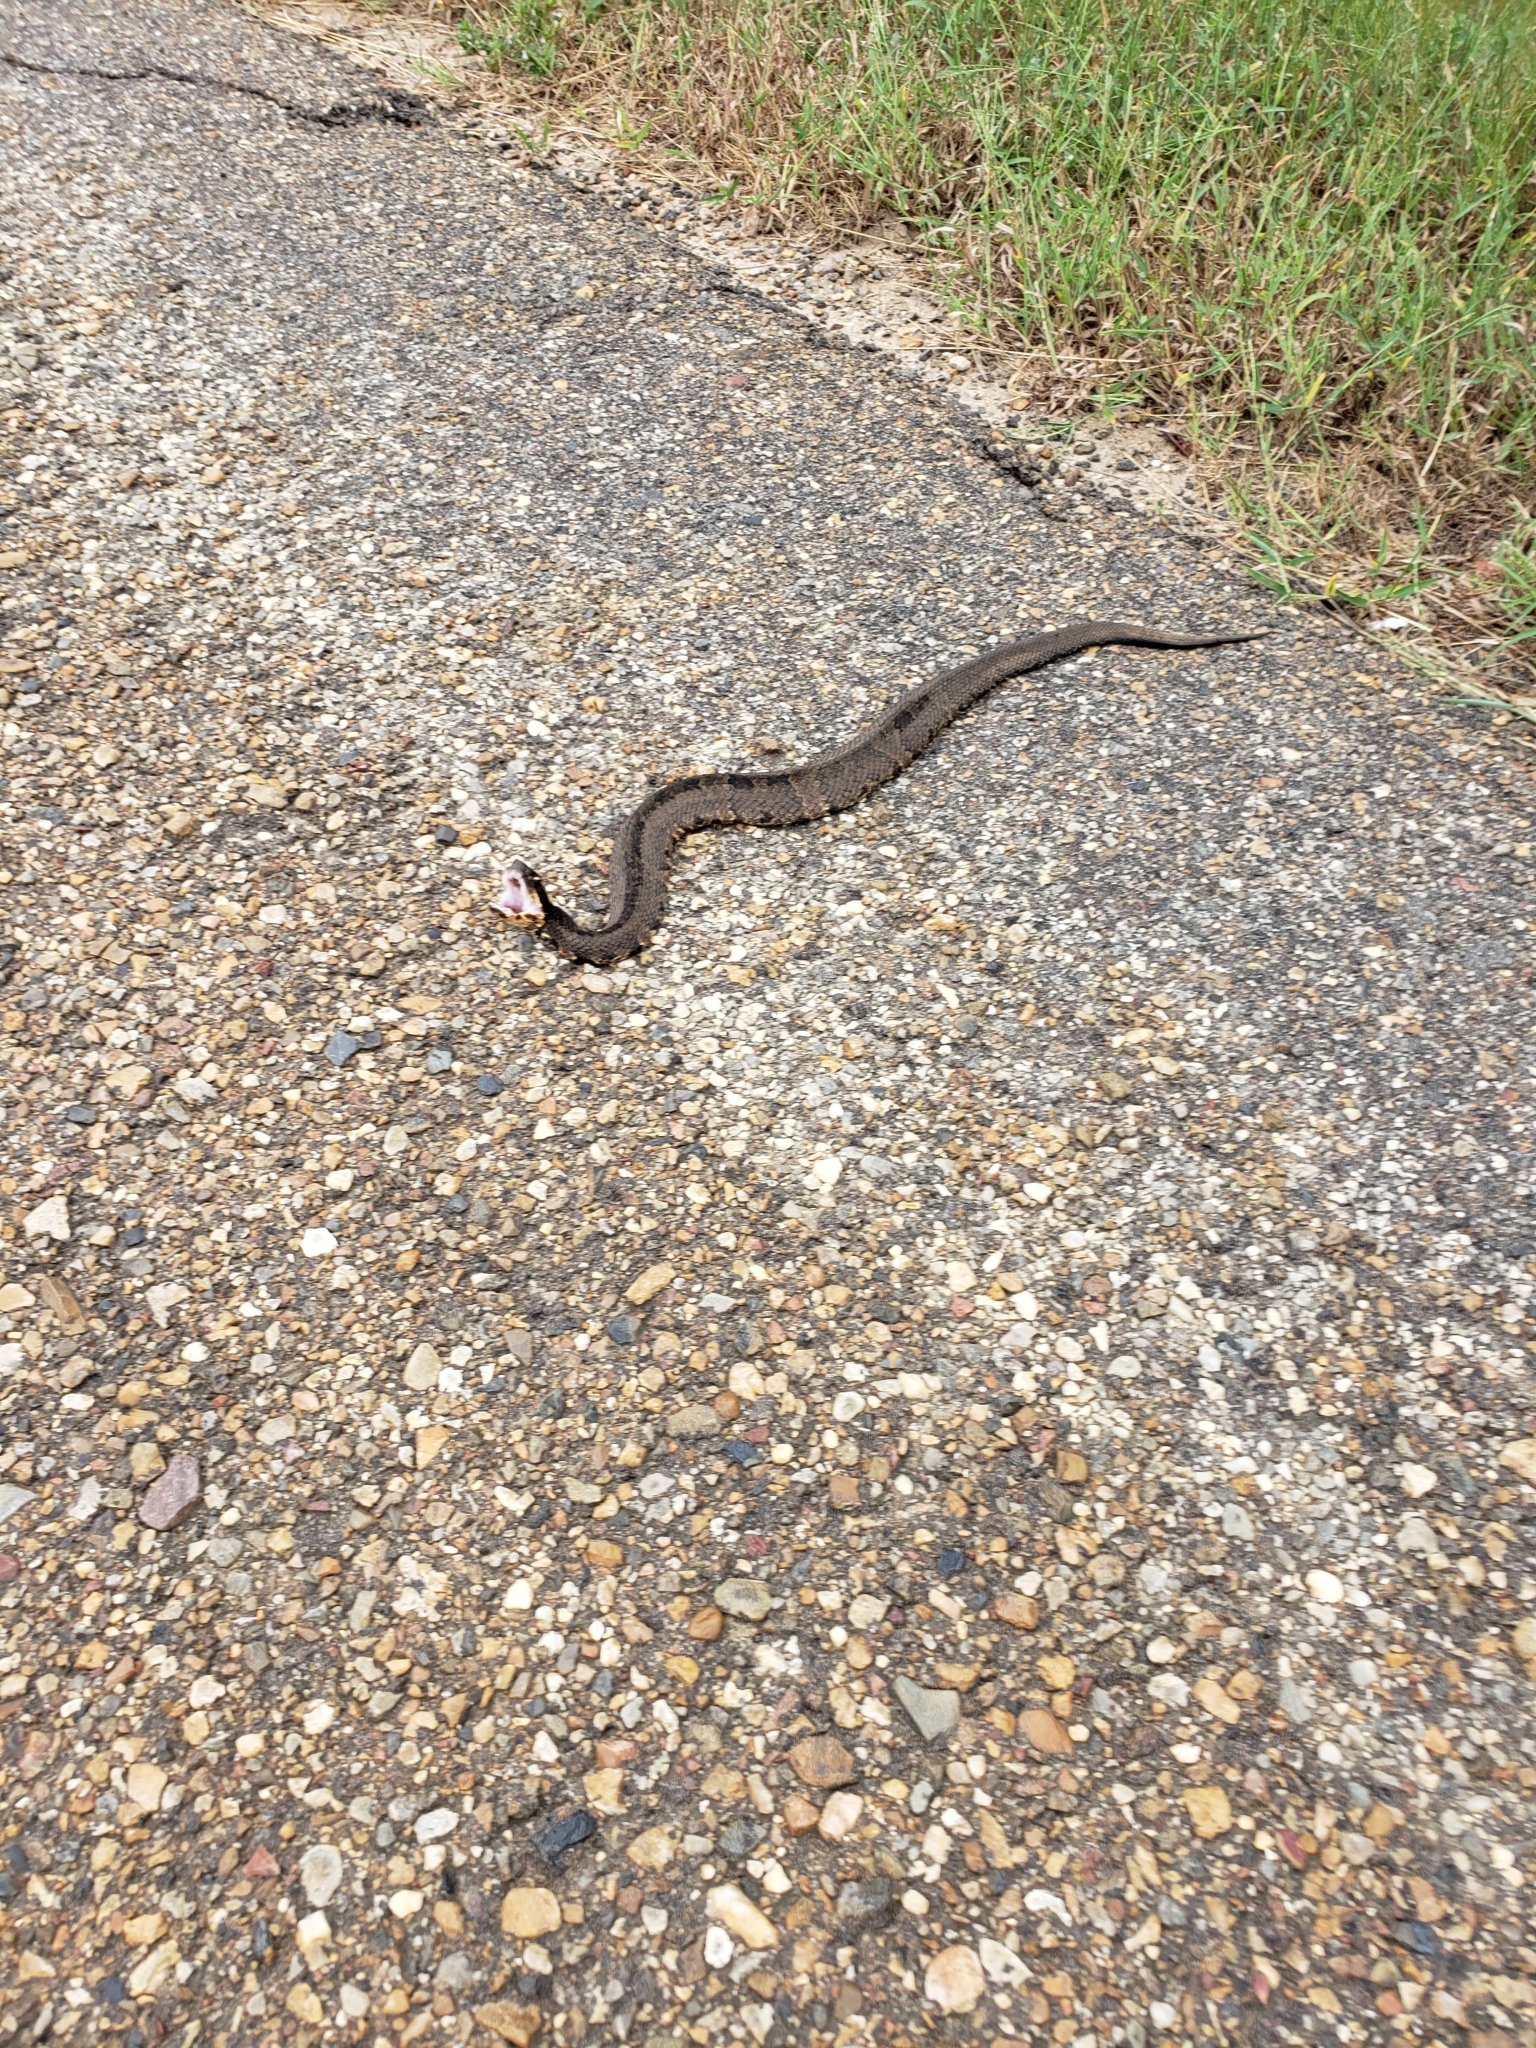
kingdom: Animalia
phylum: Chordata
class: Squamata
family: Viperidae
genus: Agkistrodon
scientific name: Agkistrodon piscivorus
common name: Cottonmouth
